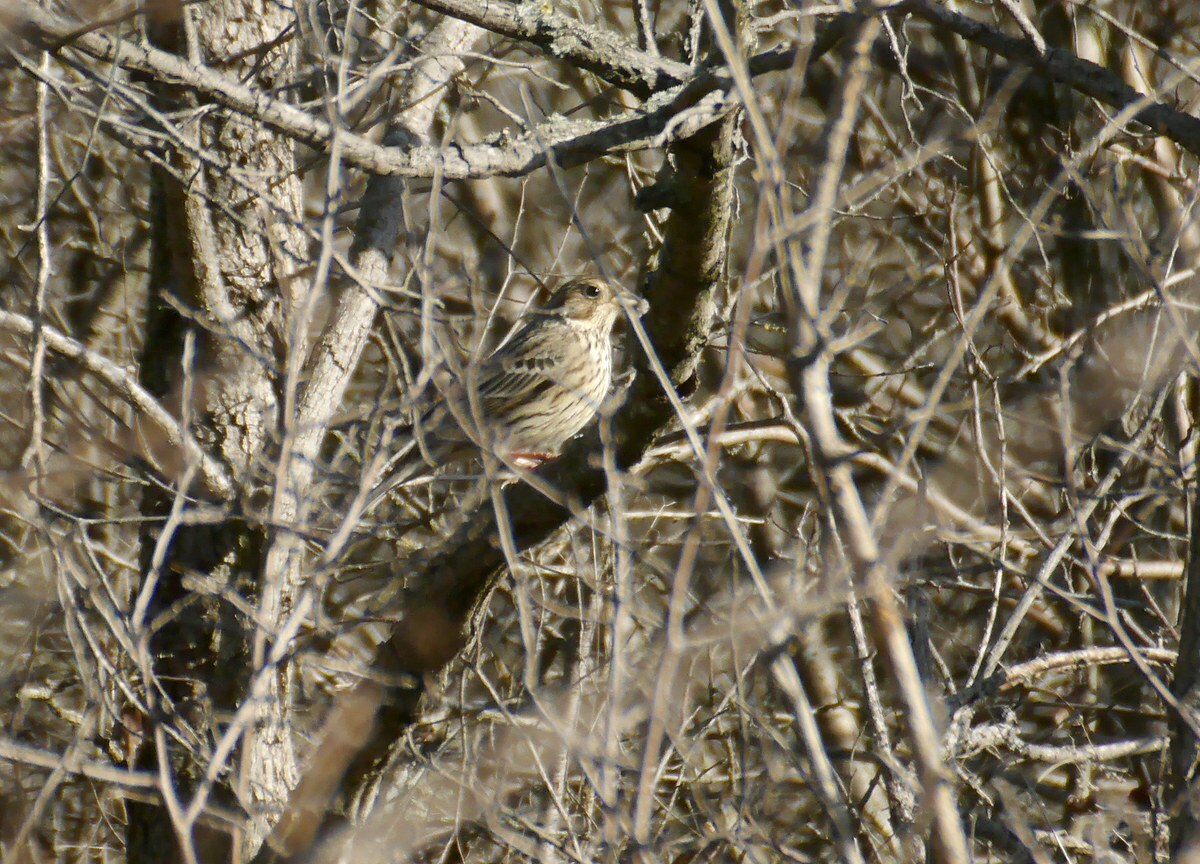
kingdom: Animalia
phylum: Chordata
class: Aves
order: Passeriformes
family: Emberizidae
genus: Emberiza
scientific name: Emberiza calandra
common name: Corn bunting
